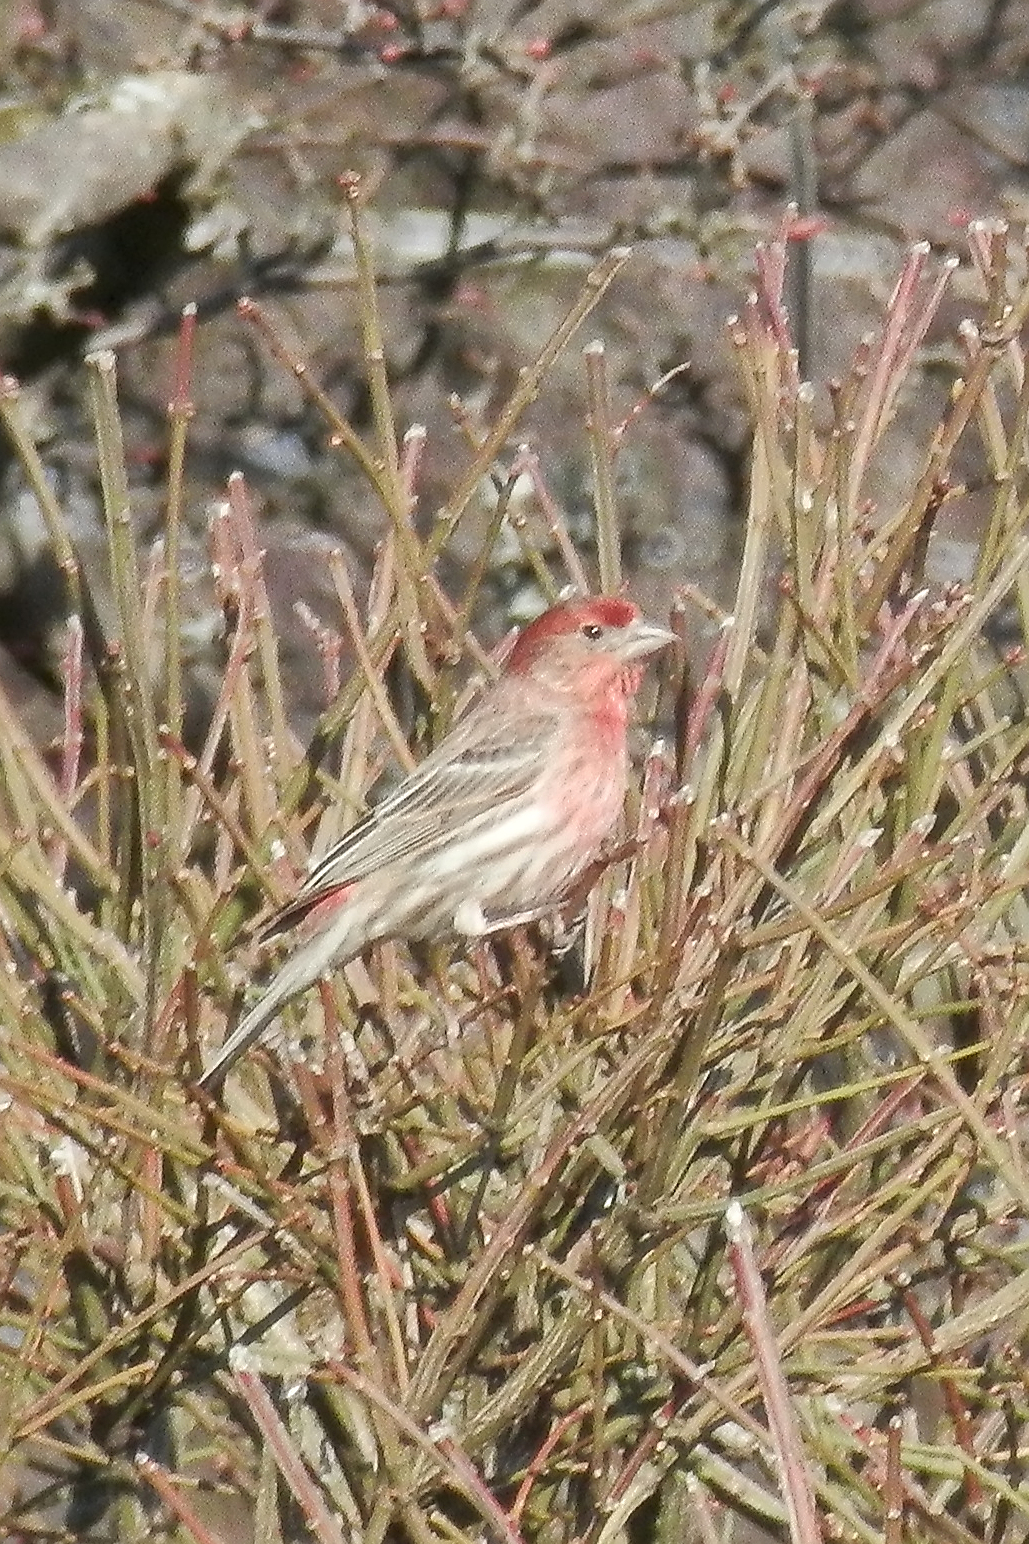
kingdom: Animalia
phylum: Chordata
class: Aves
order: Passeriformes
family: Fringillidae
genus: Haemorhous
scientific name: Haemorhous mexicanus
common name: House finch
